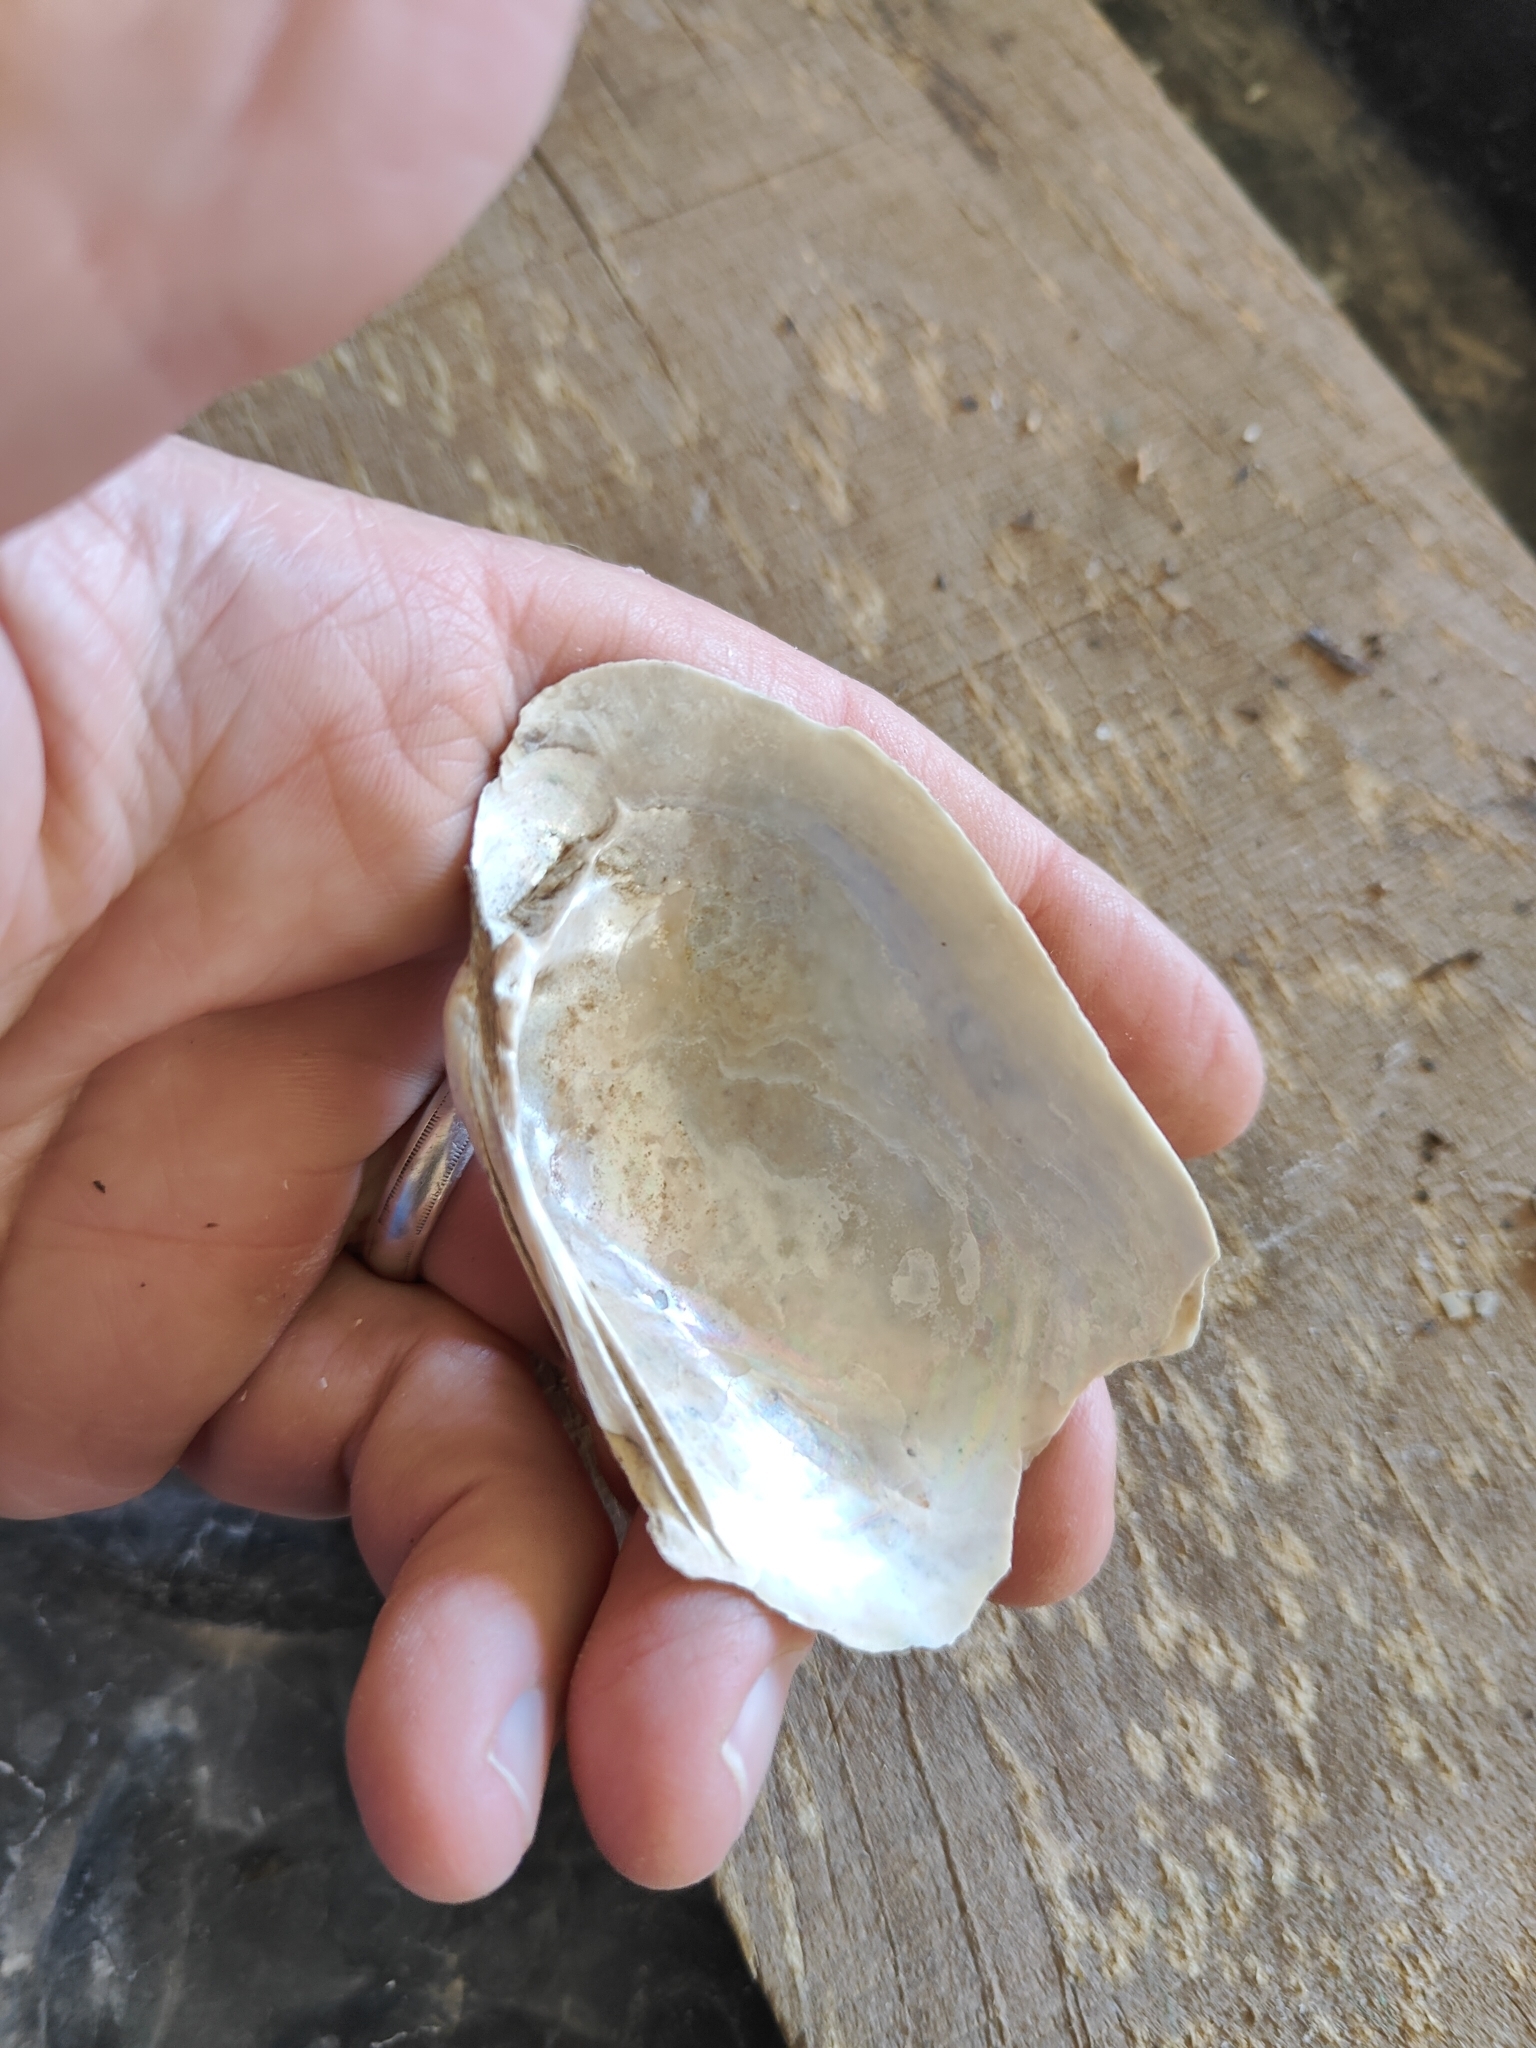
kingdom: Animalia
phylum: Mollusca
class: Bivalvia
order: Unionida
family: Unionidae
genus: Lampsilis
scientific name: Lampsilis siliquoidea
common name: Fatmucket
